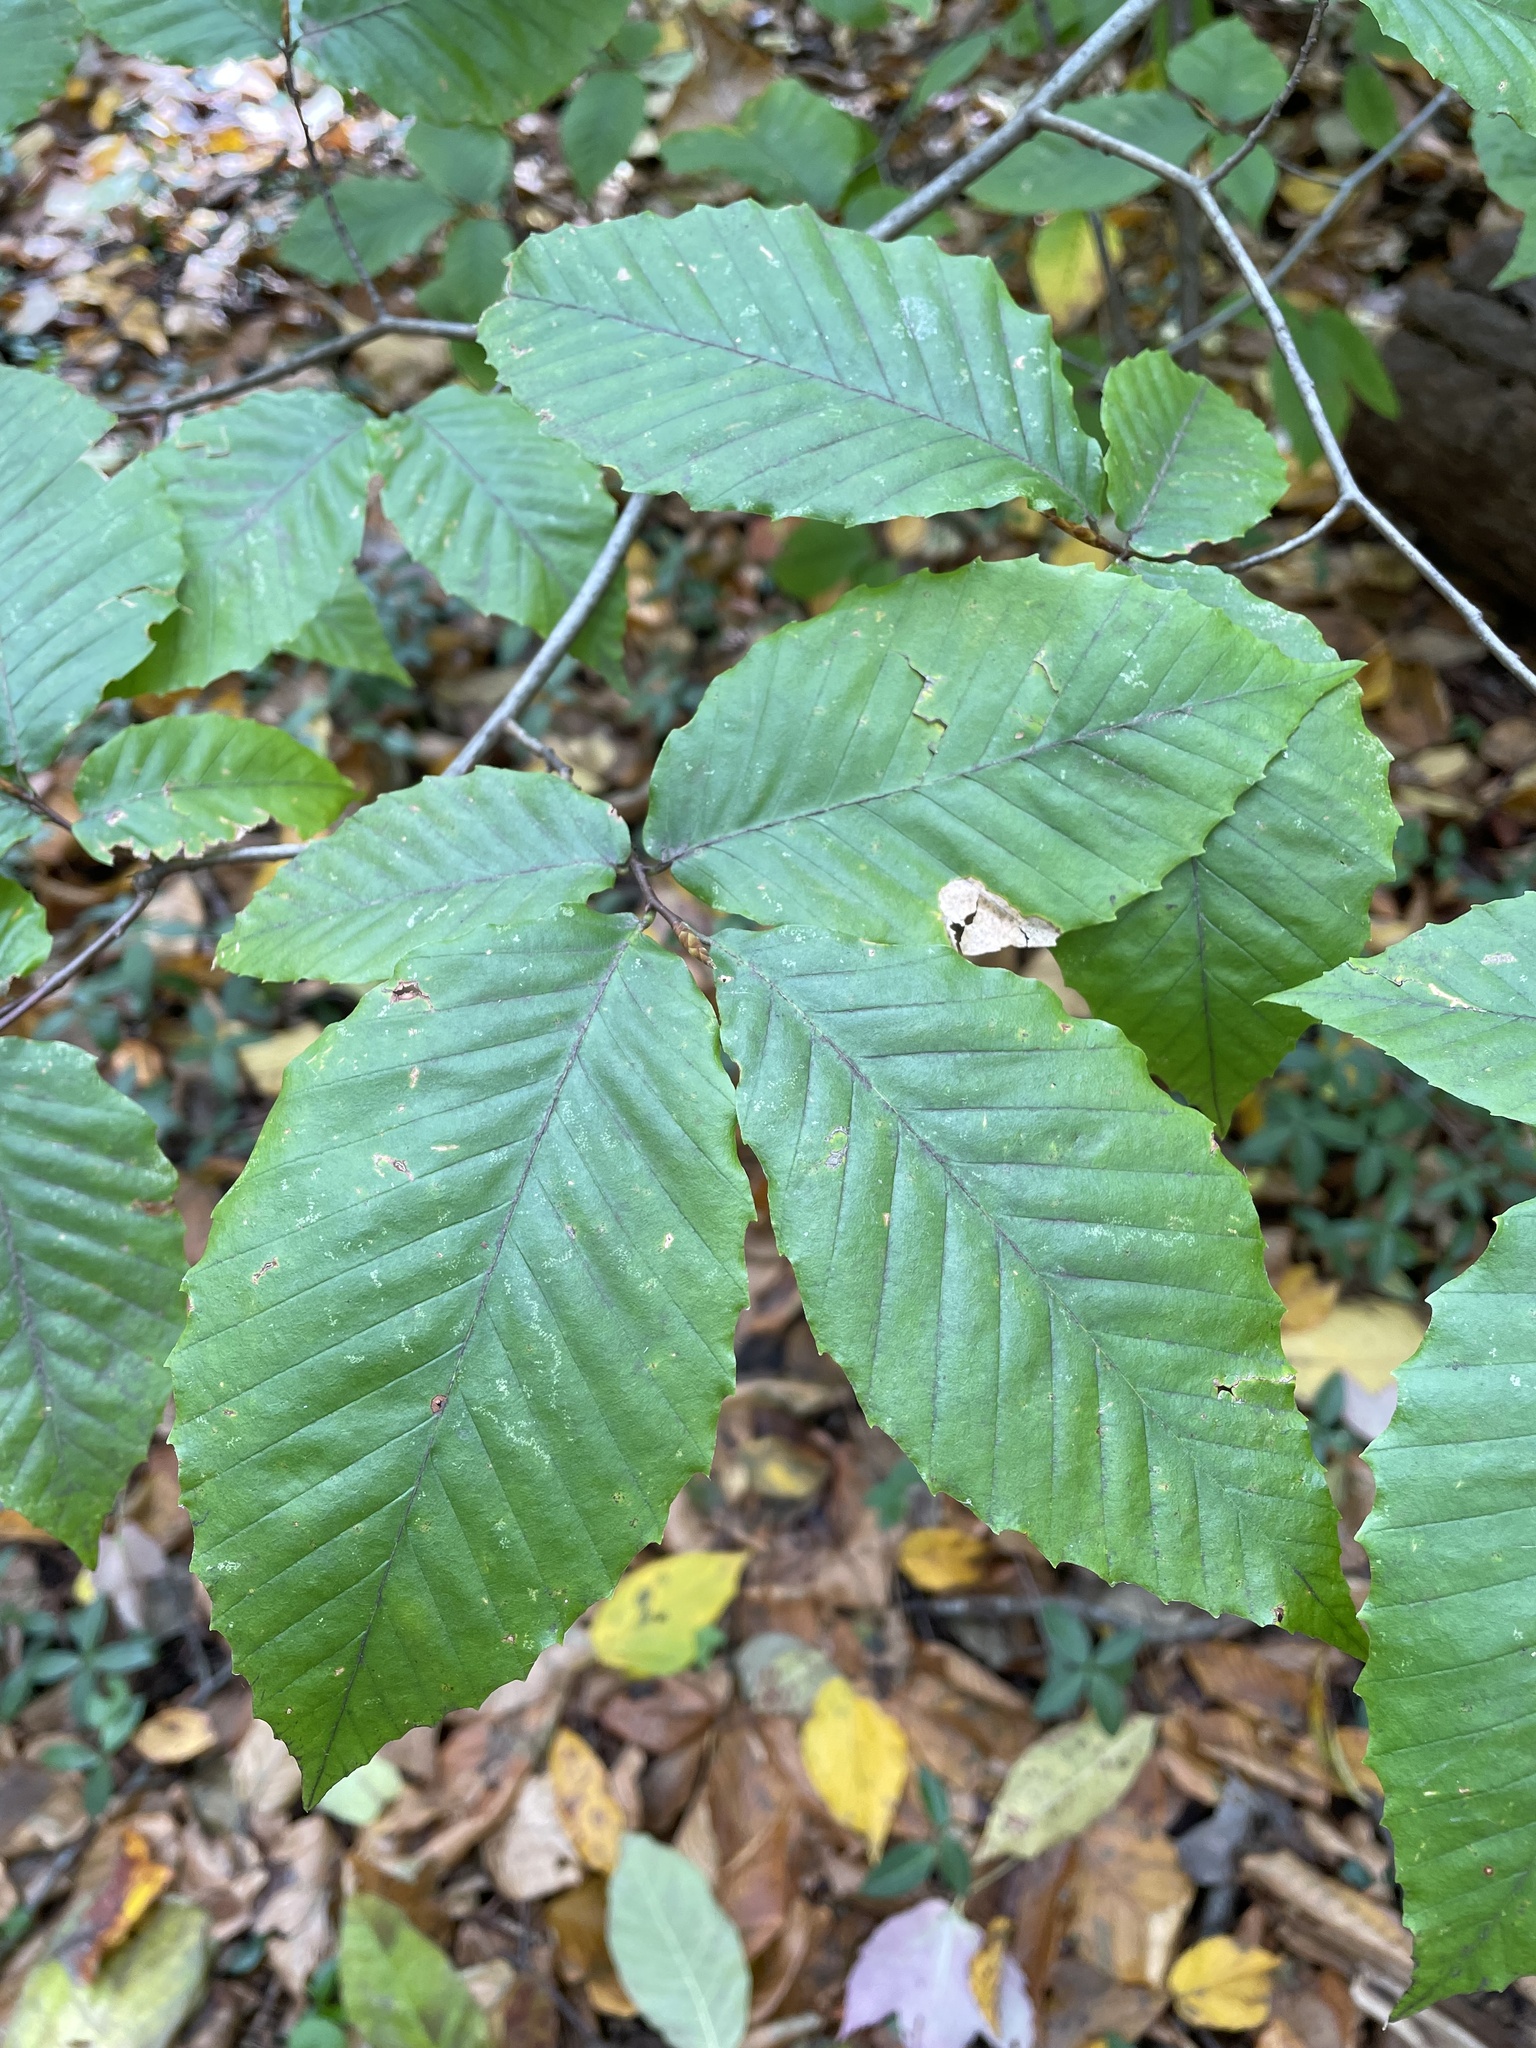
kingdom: Plantae
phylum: Tracheophyta
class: Magnoliopsida
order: Fagales
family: Fagaceae
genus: Fagus
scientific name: Fagus grandifolia
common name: American beech
